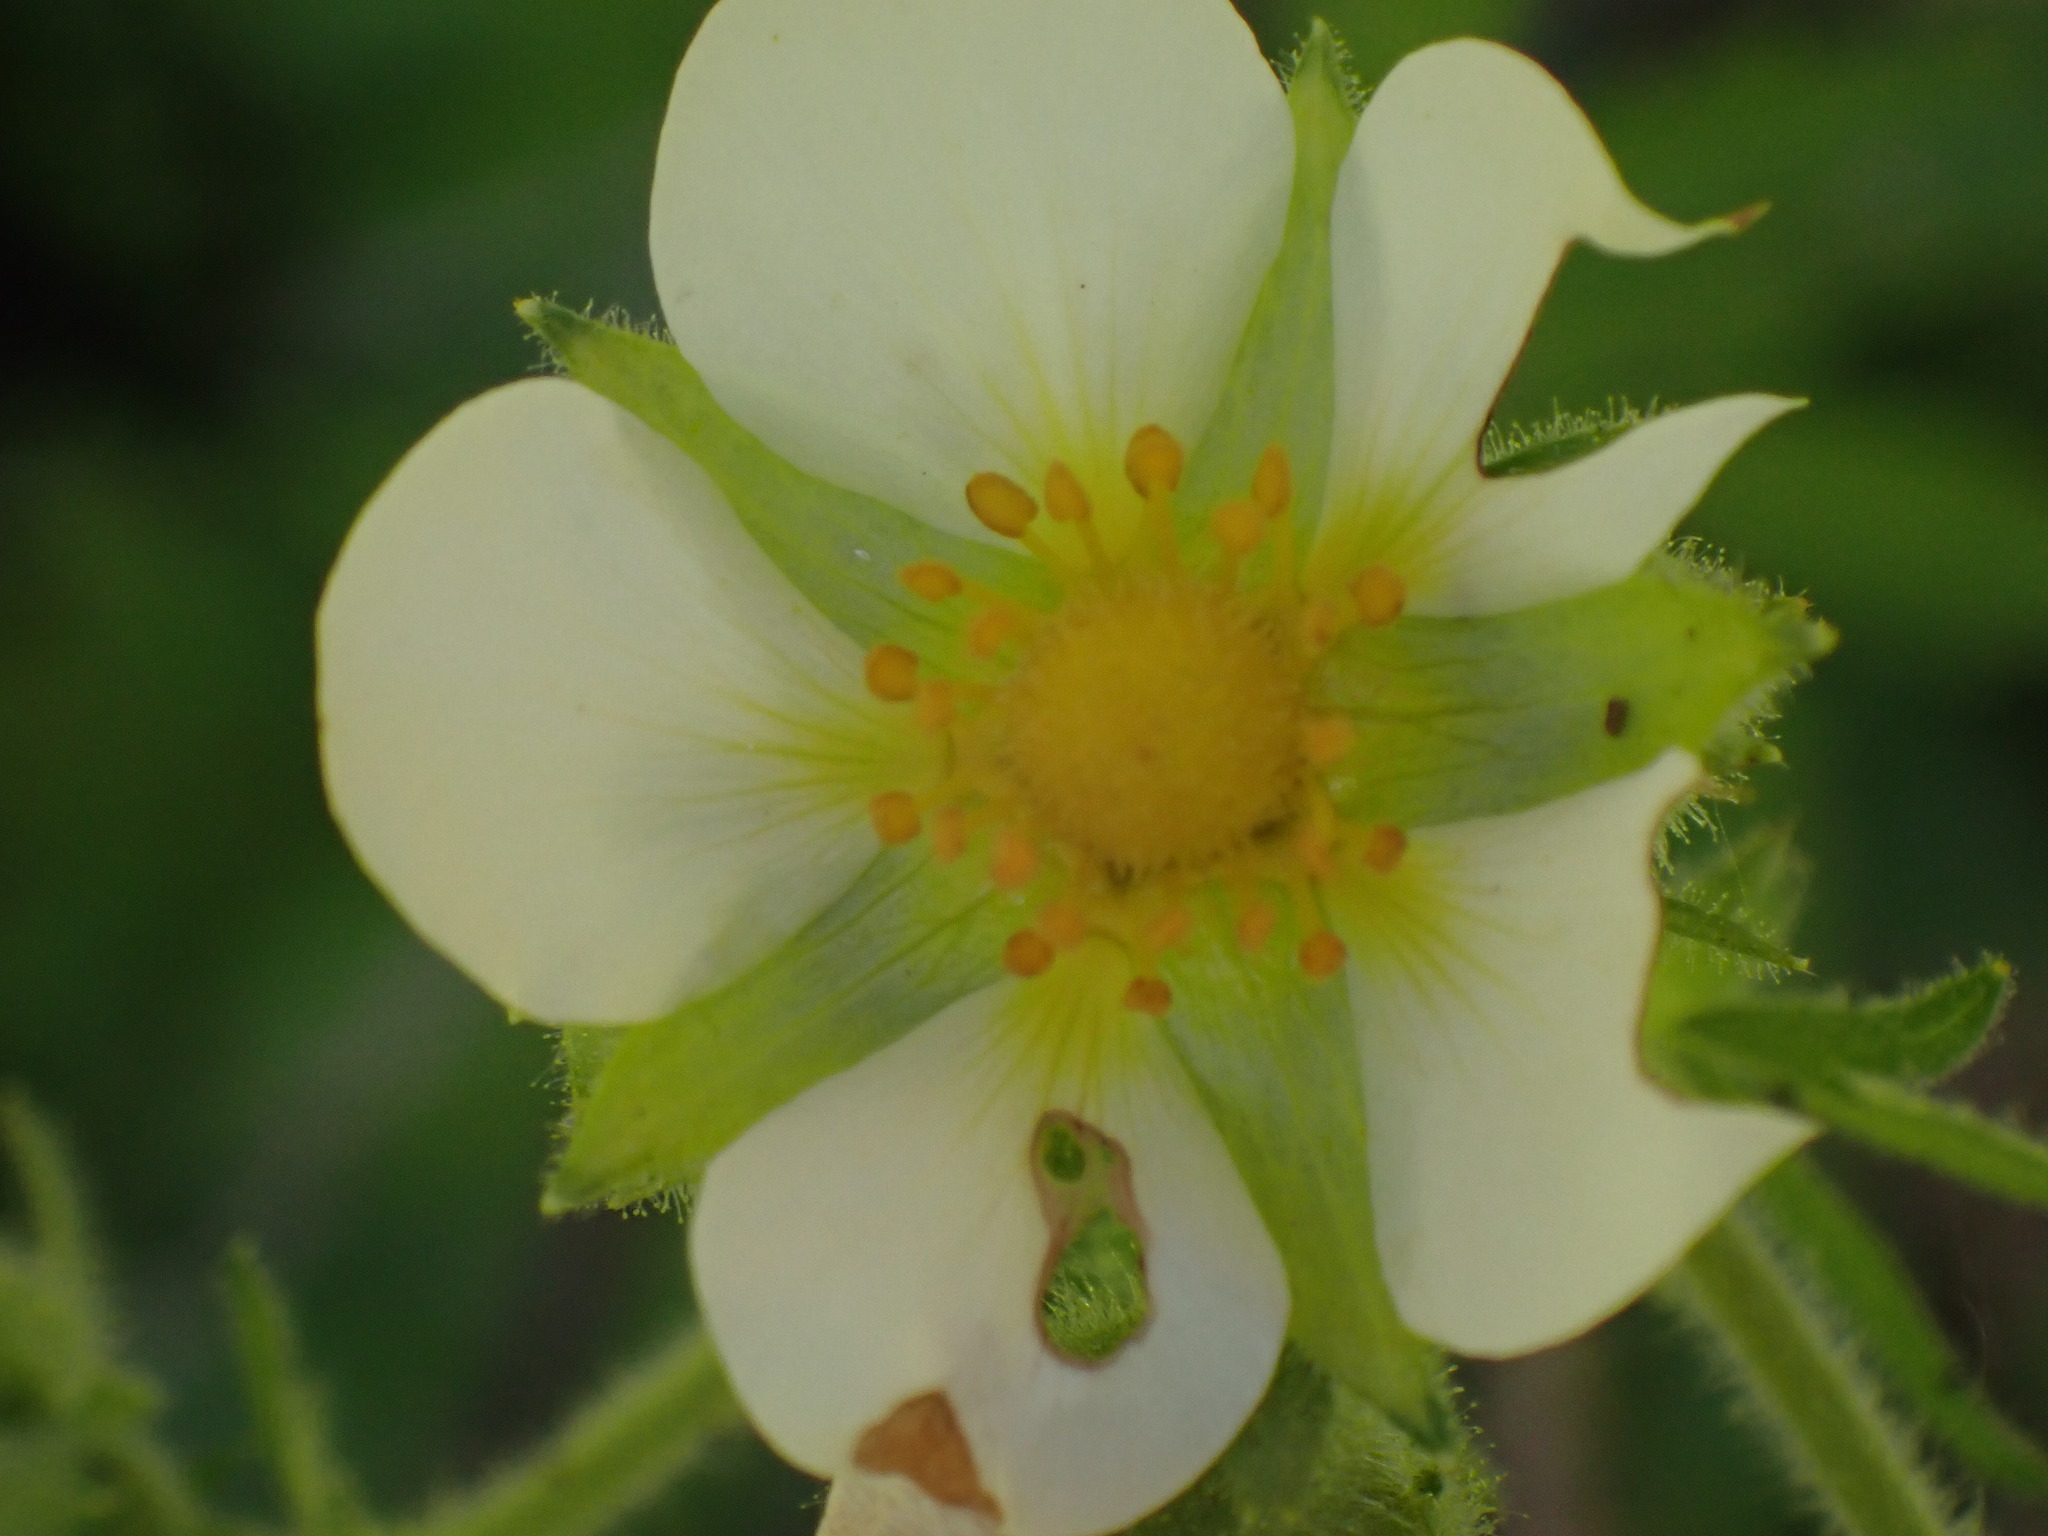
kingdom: Plantae
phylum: Tracheophyta
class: Magnoliopsida
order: Rosales
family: Rosaceae
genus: Drymocallis
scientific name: Drymocallis convallaria
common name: Cream cinquefoil
